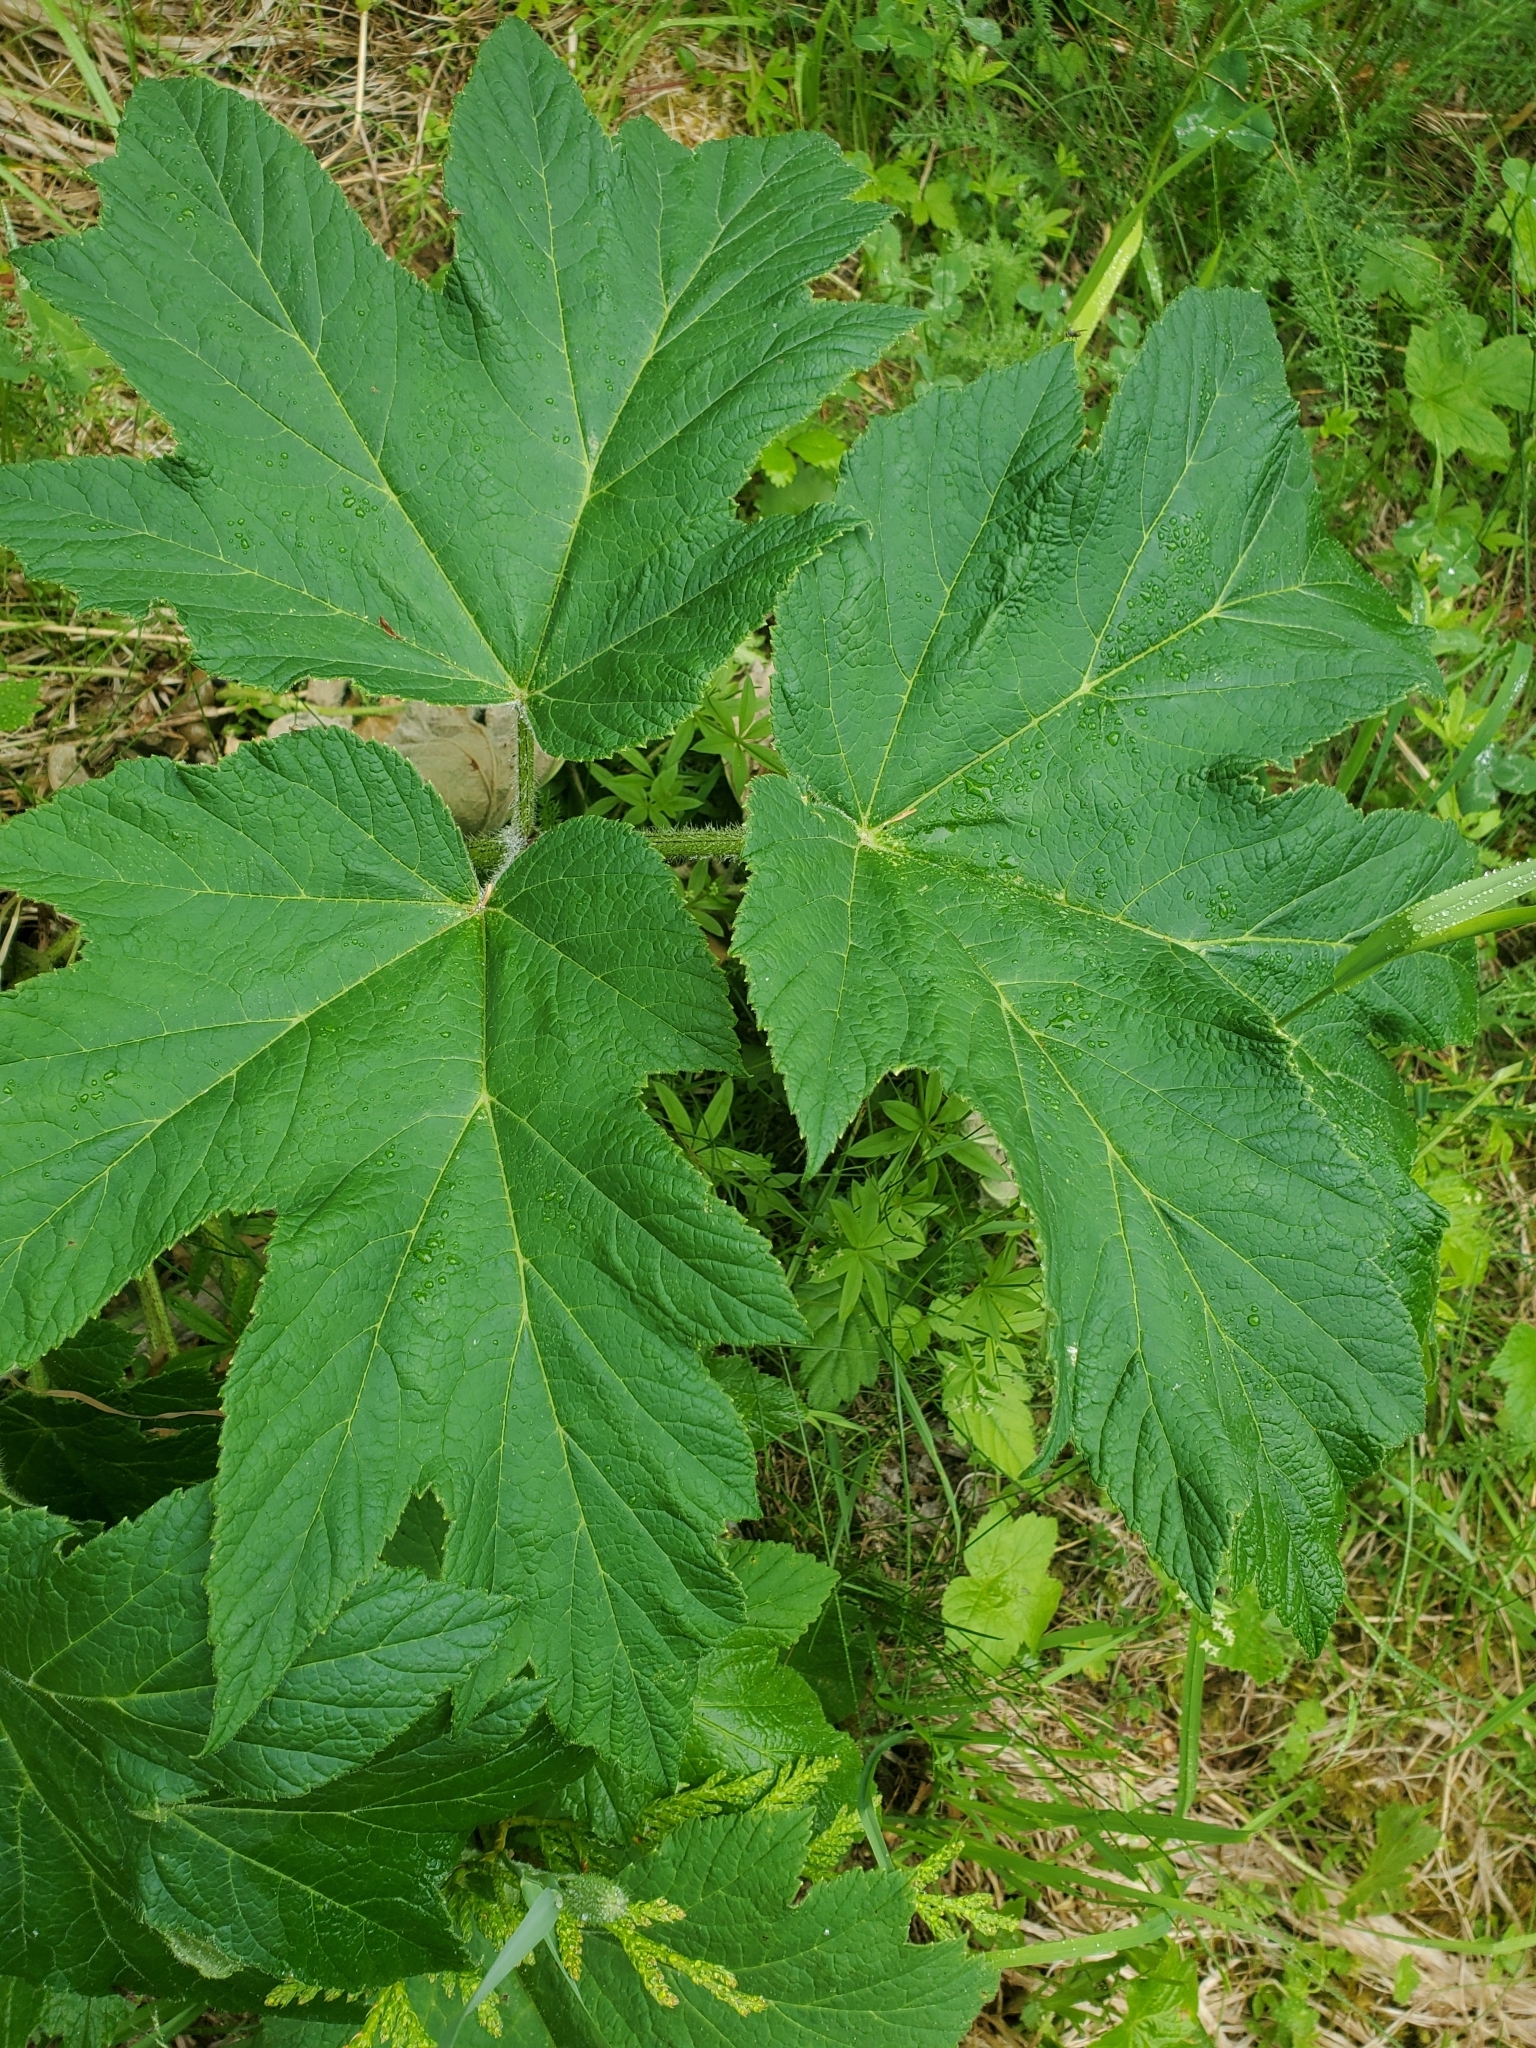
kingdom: Plantae
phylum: Tracheophyta
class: Magnoliopsida
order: Apiales
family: Apiaceae
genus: Heracleum
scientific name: Heracleum maximum
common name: American cow parsnip
